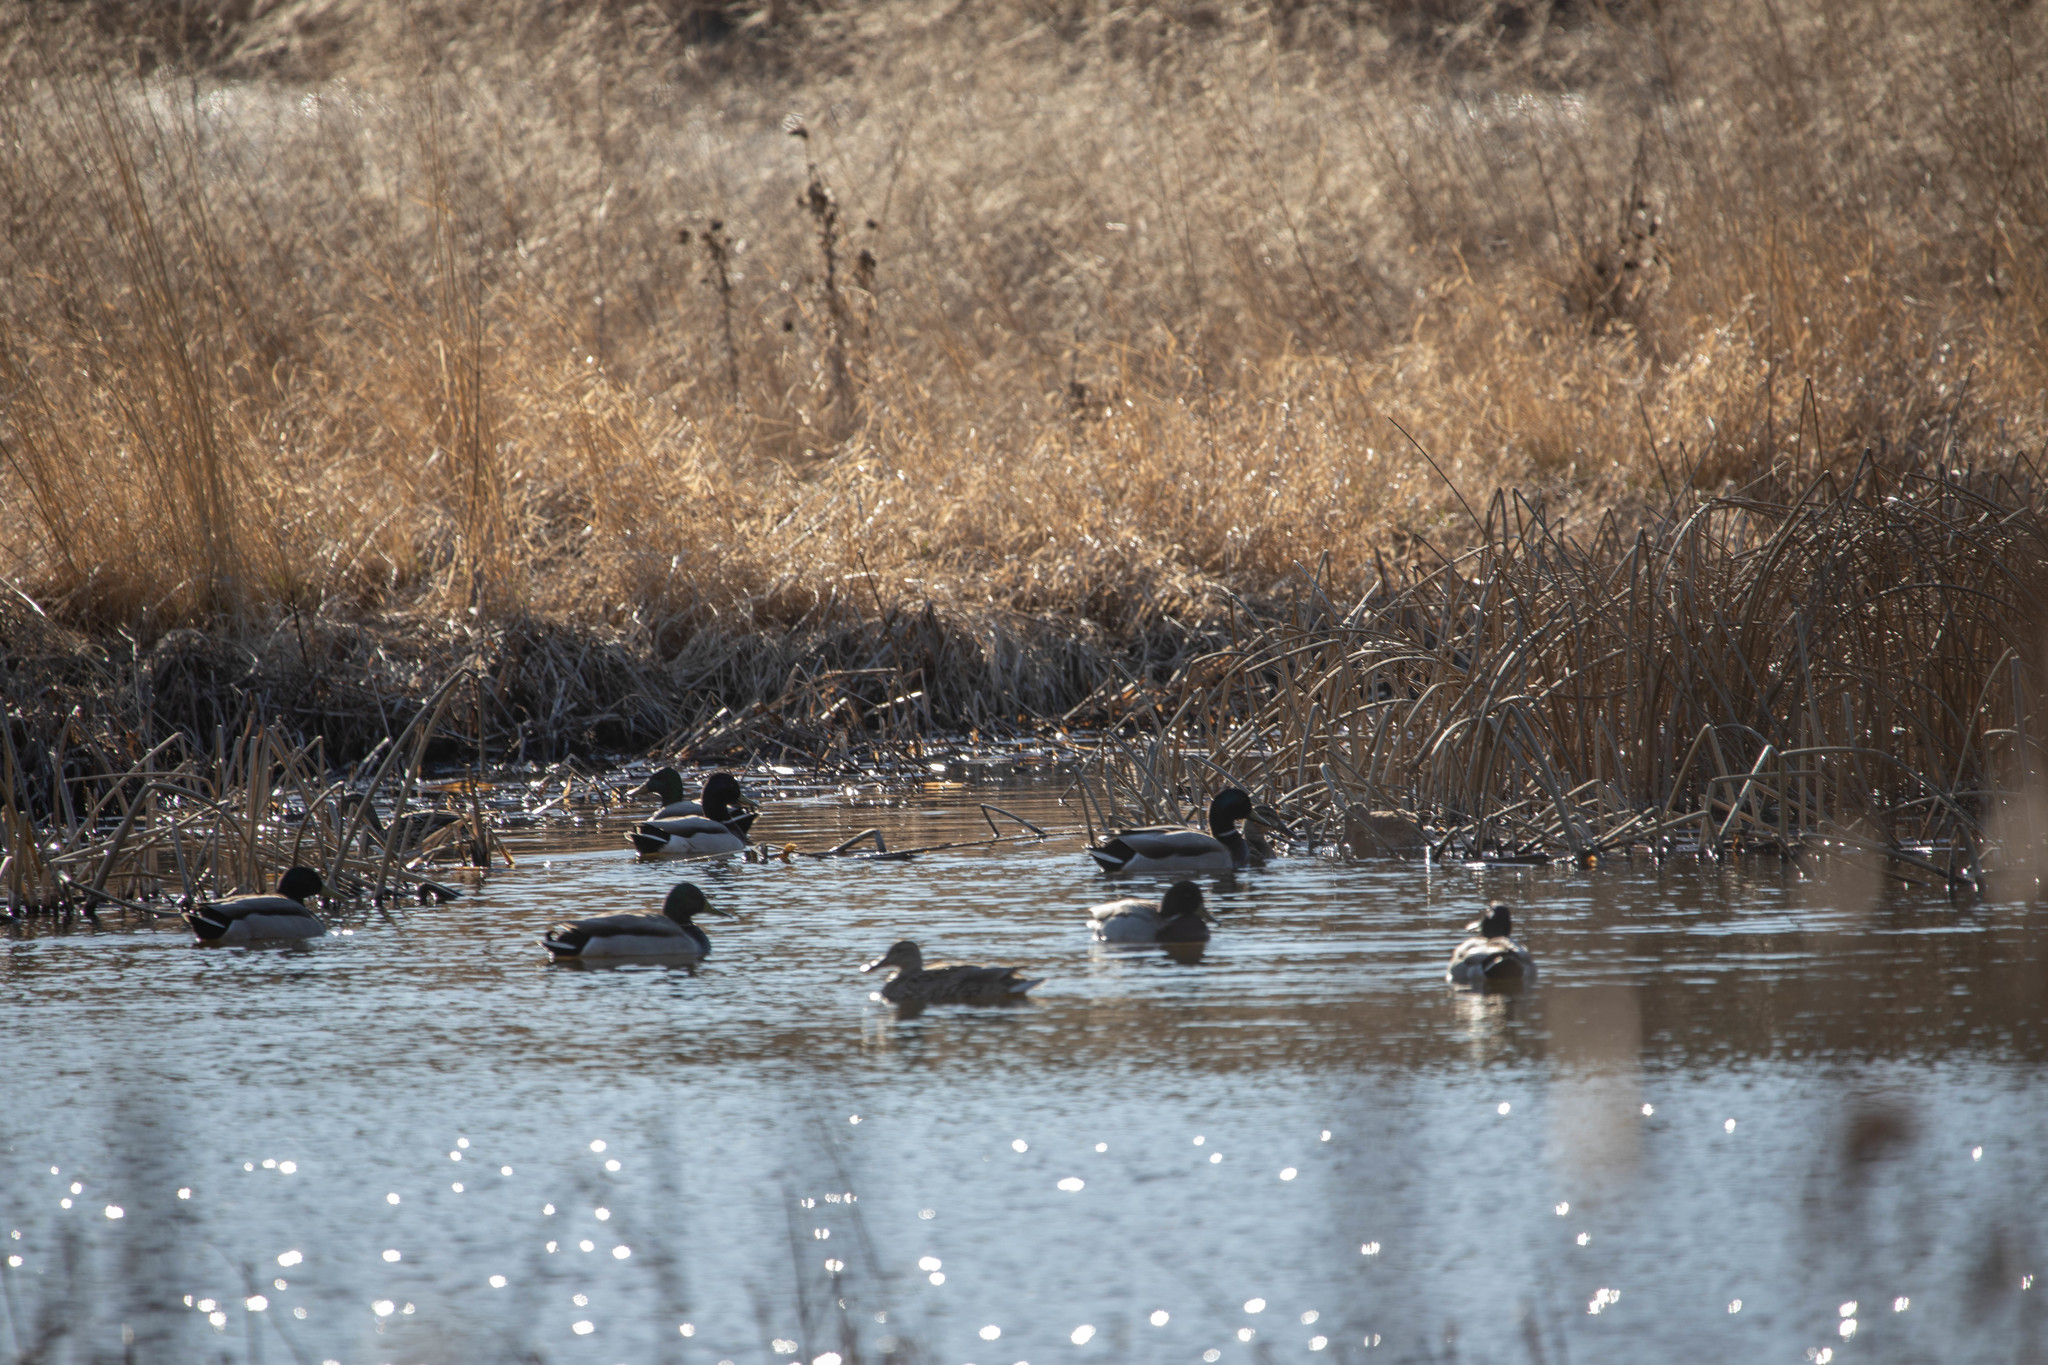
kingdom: Animalia
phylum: Chordata
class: Aves
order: Anseriformes
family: Anatidae
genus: Anas
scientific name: Anas platyrhynchos
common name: Mallard
